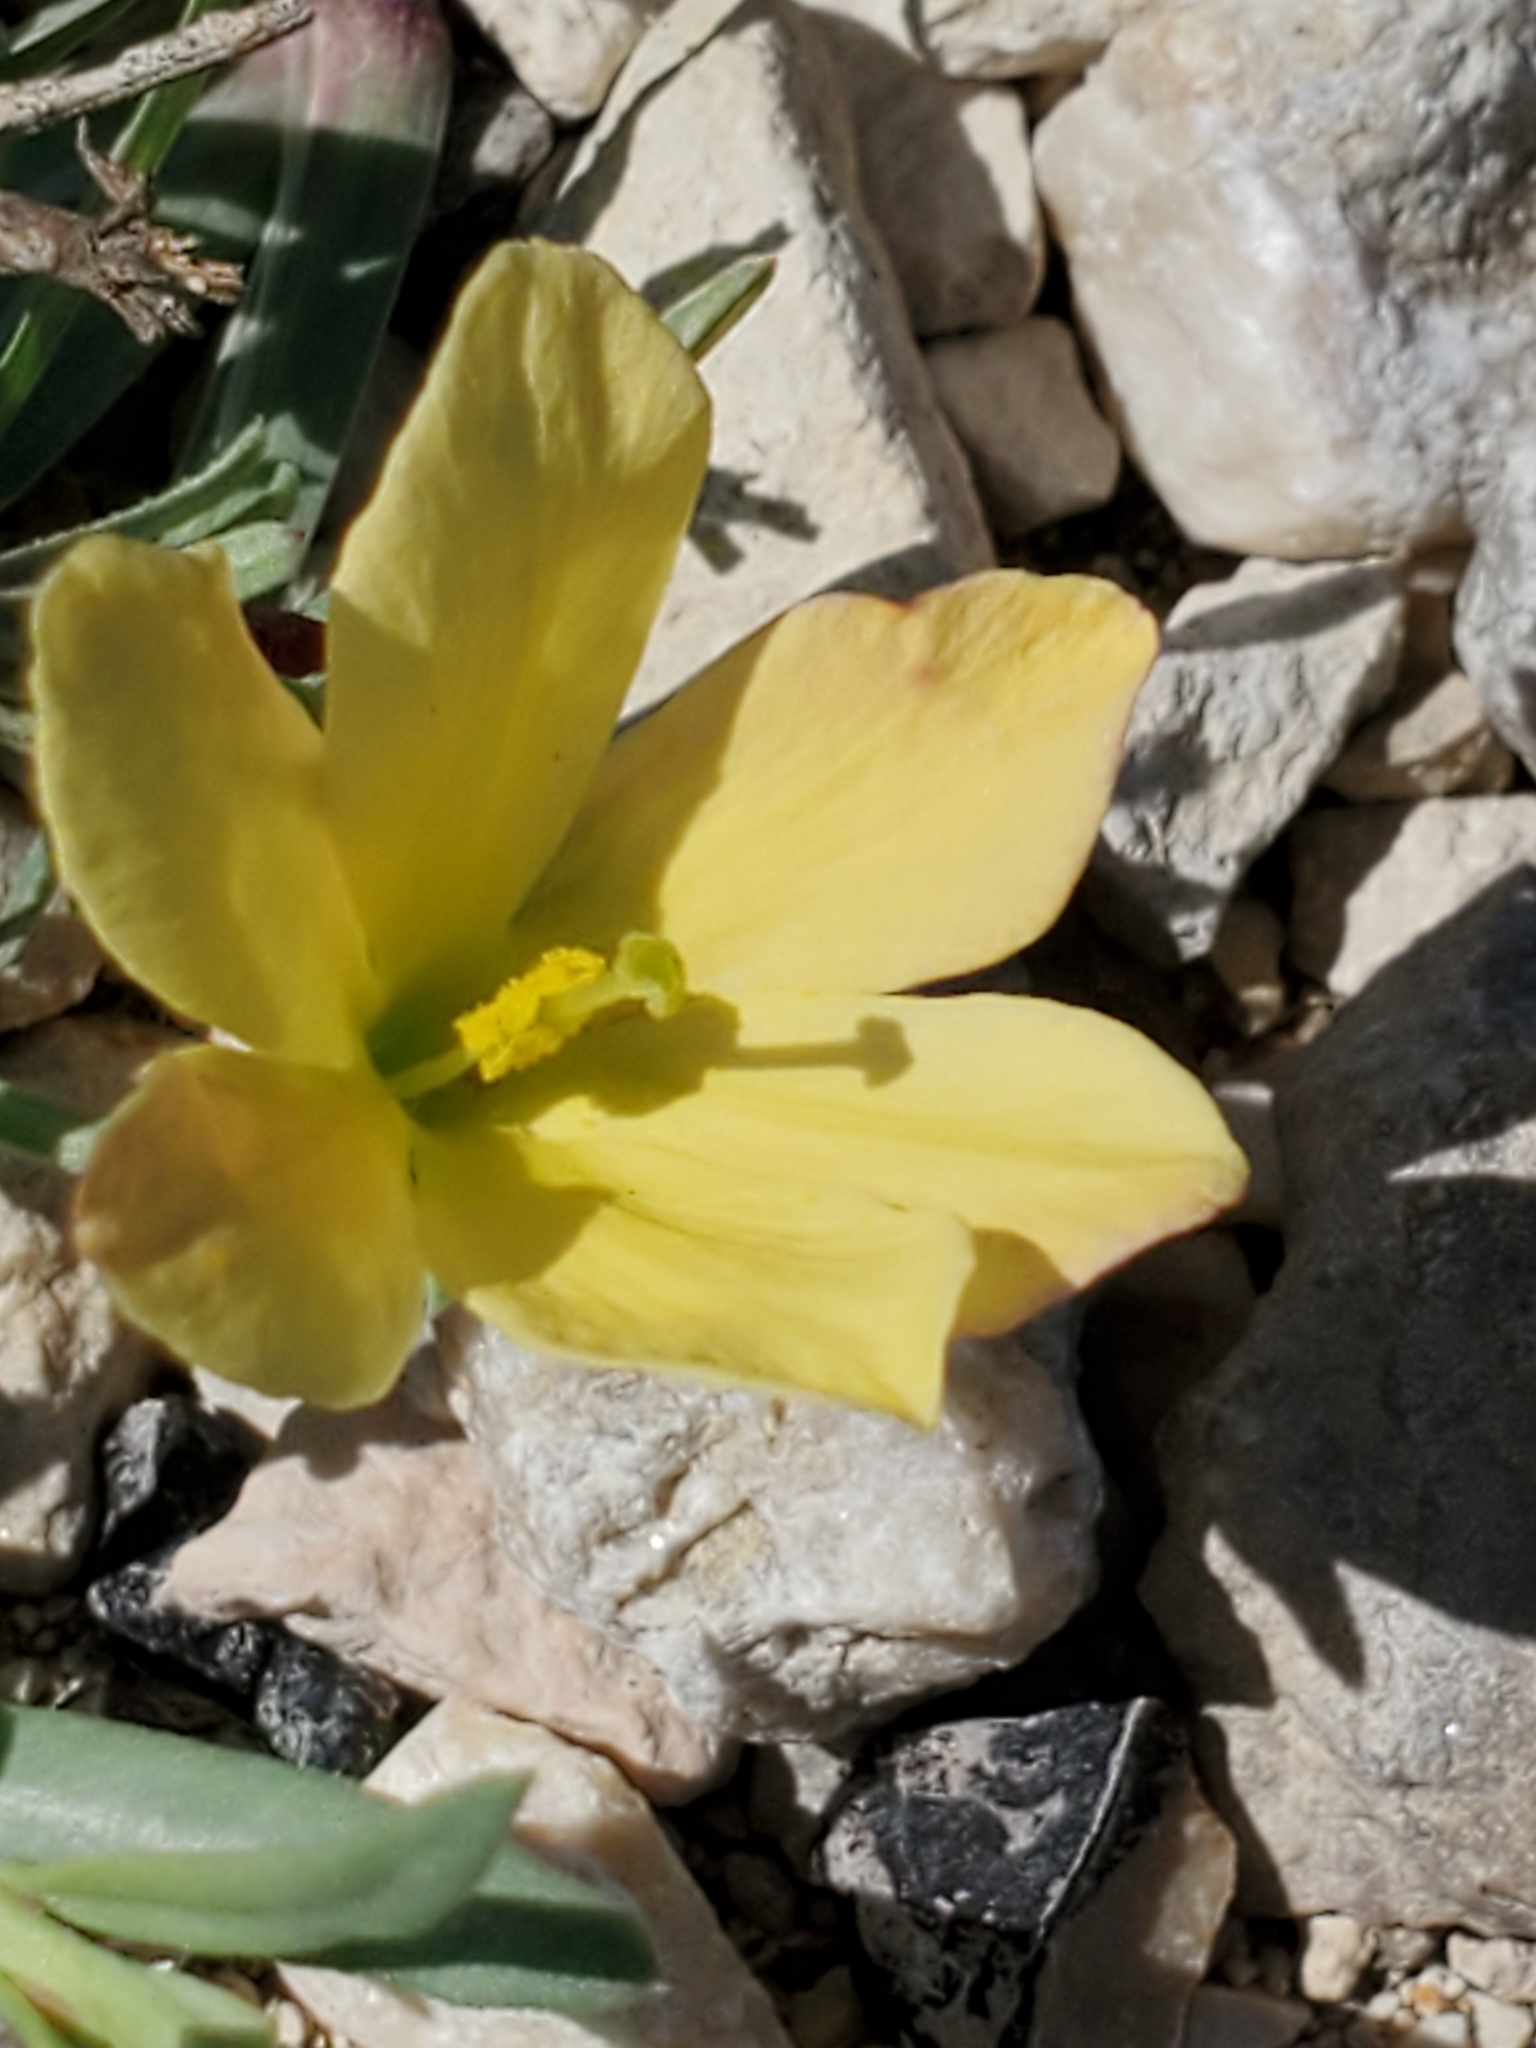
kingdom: Plantae
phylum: Tracheophyta
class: Magnoliopsida
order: Lamiales
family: Oleaceae
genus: Menodora
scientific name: Menodora heterophylla
